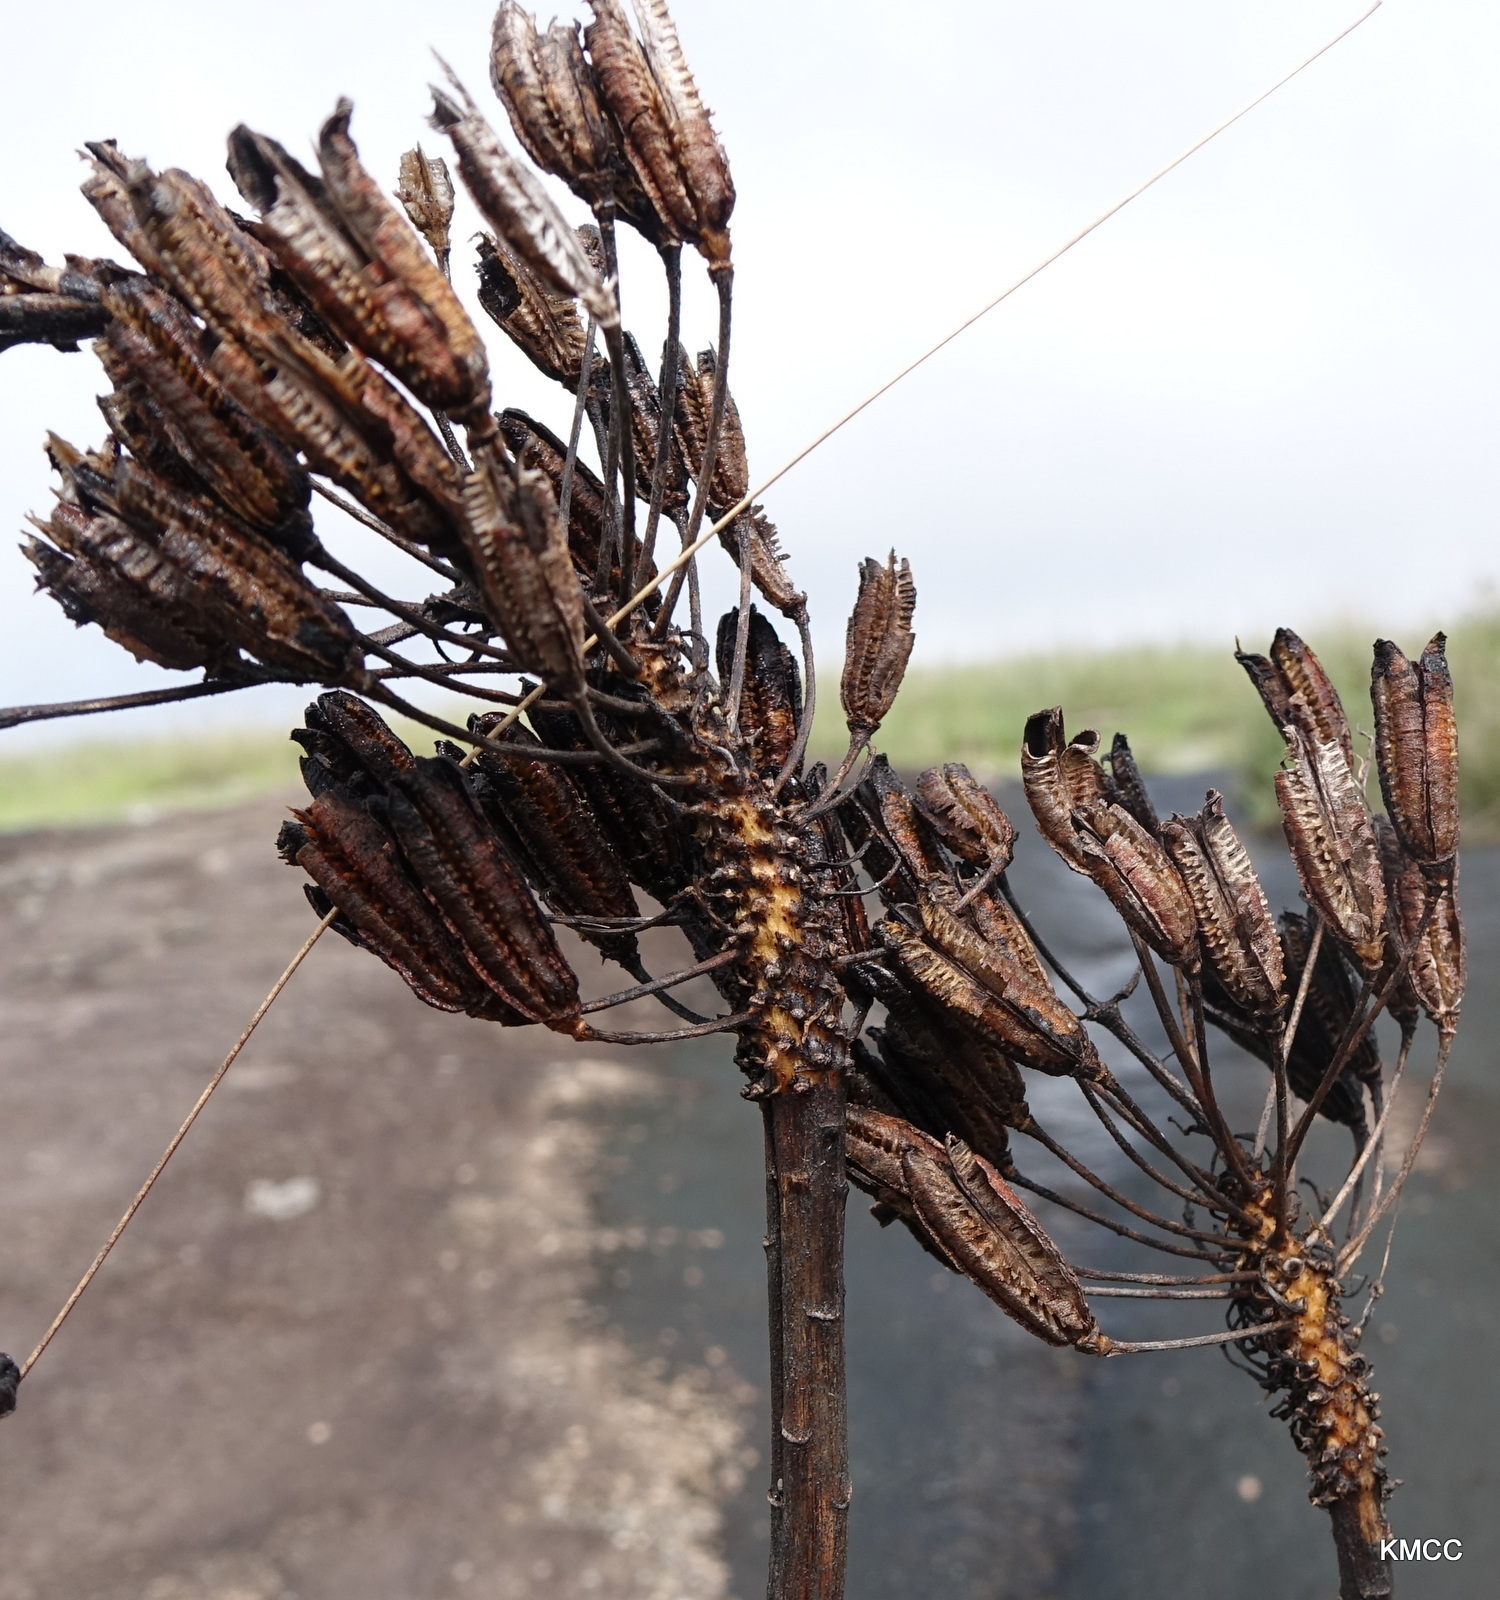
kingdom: Plantae
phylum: Tracheophyta
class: Liliopsida
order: Asparagales
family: Asphodelaceae
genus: Aloe
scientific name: Aloe capitata
